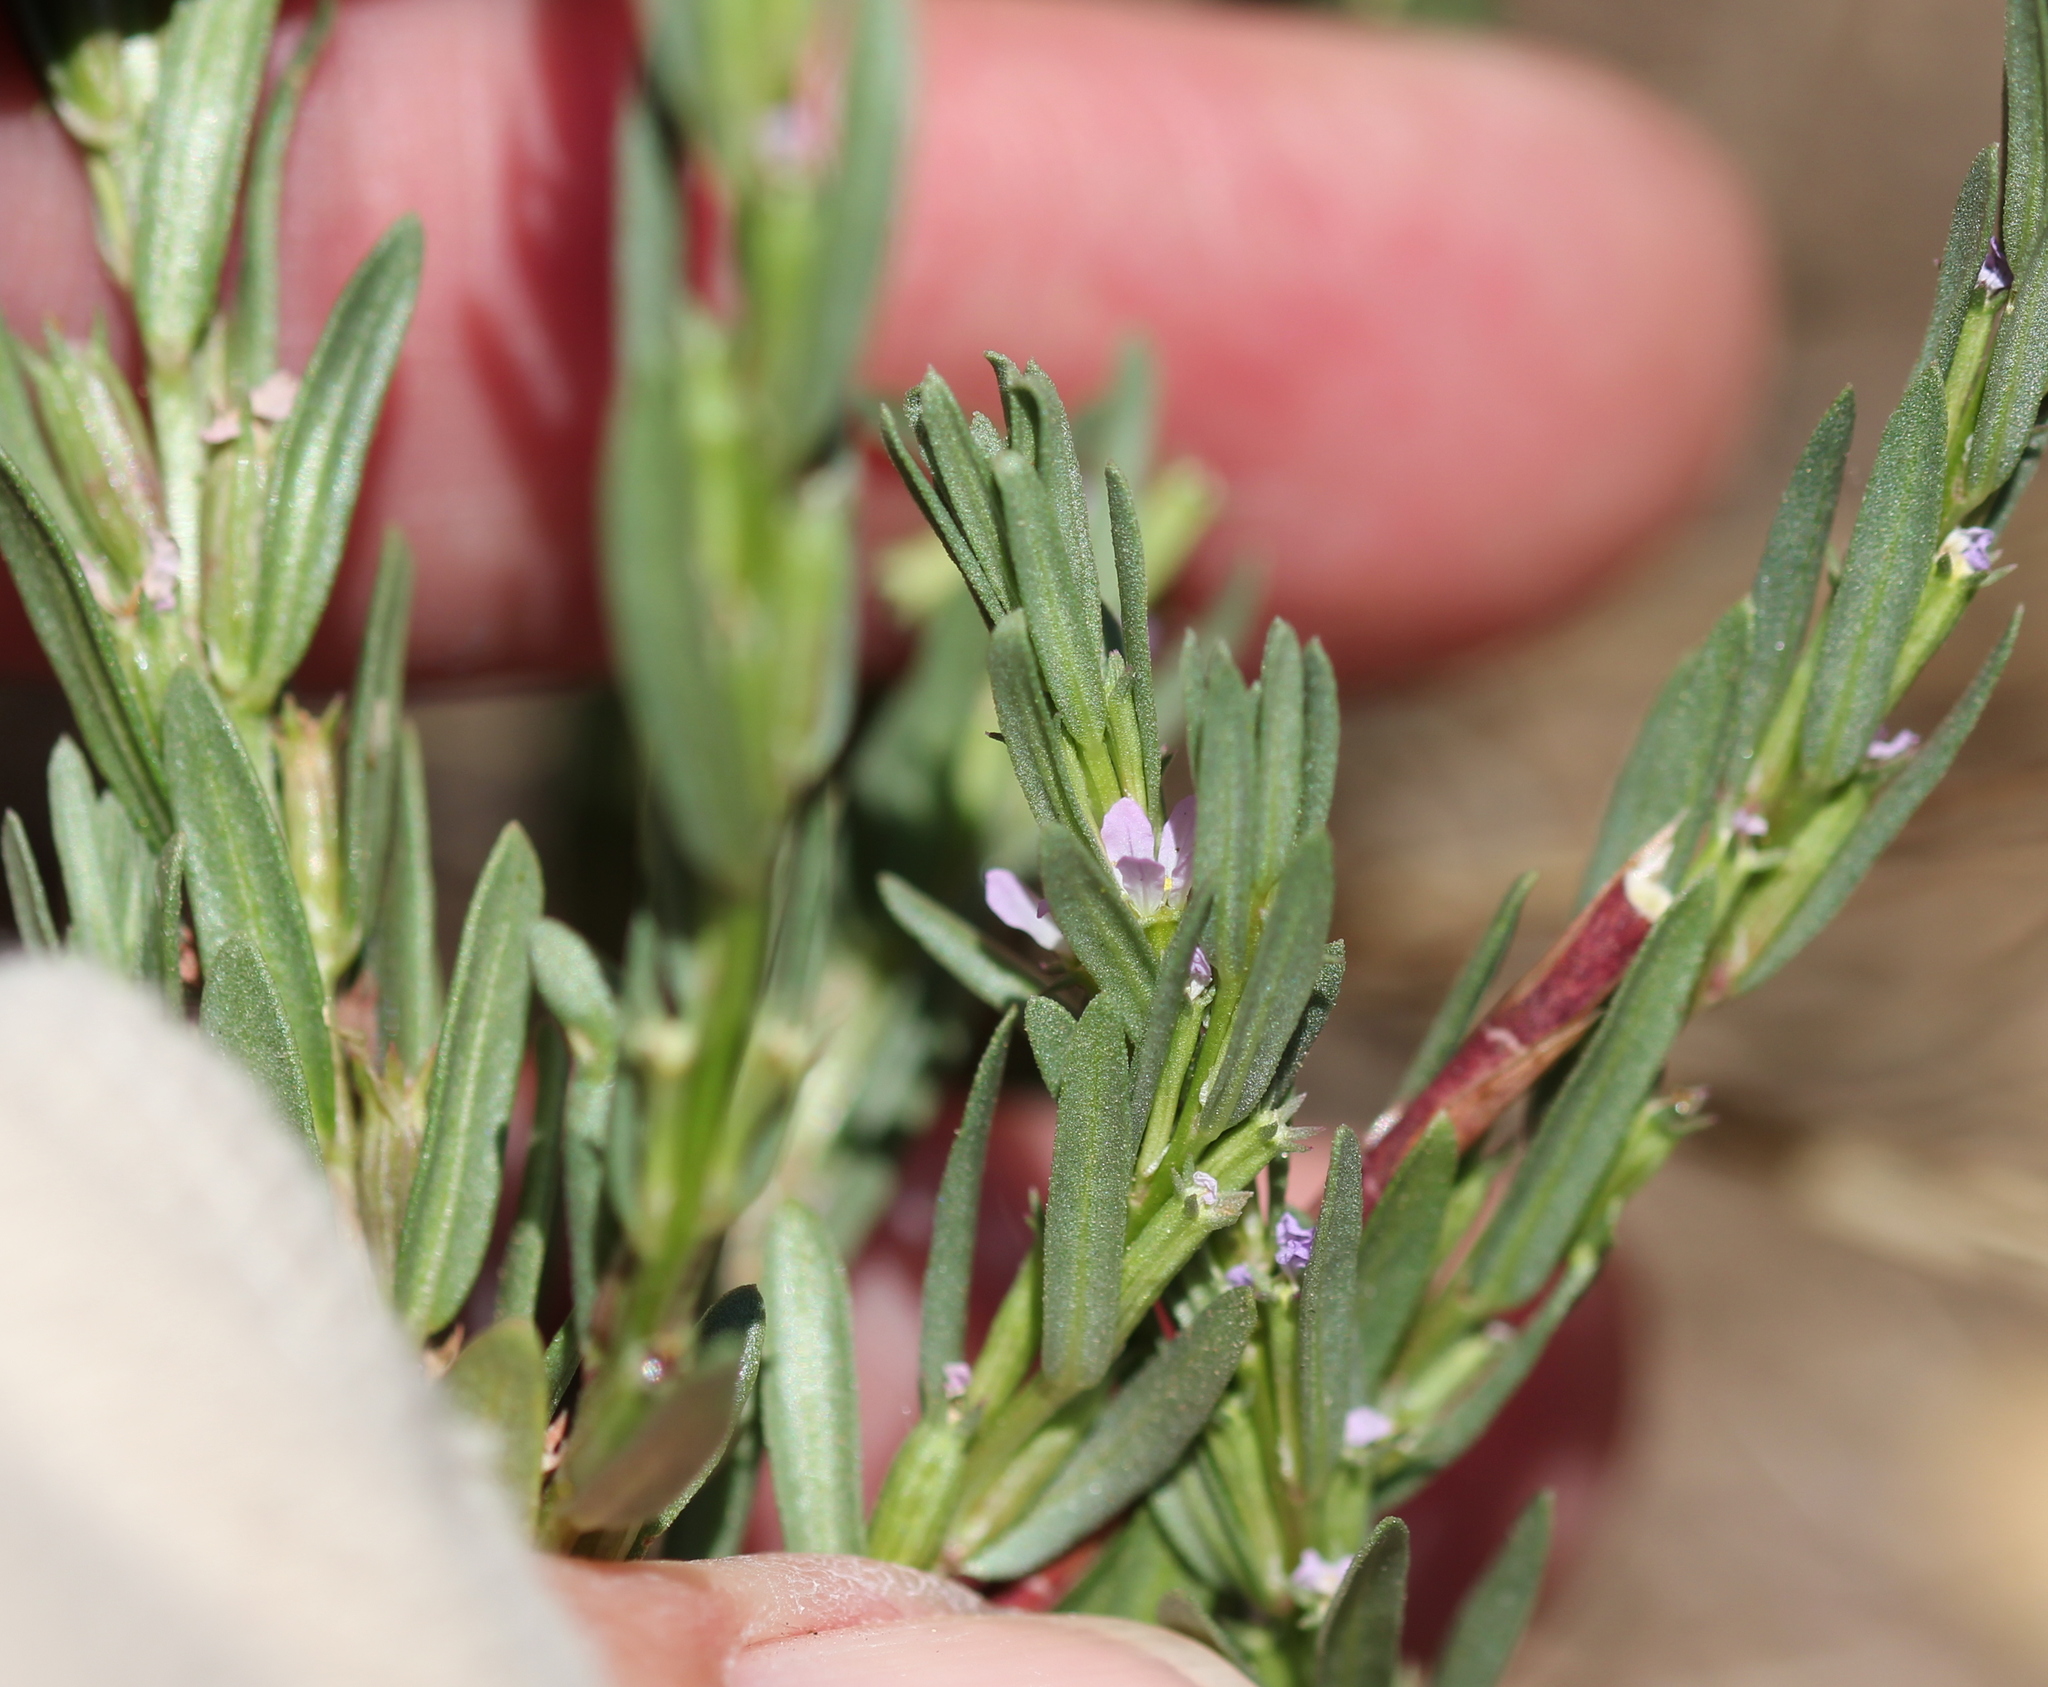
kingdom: Plantae
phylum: Tracheophyta
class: Magnoliopsida
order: Myrtales
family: Lythraceae
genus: Lythrum
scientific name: Lythrum hyssopifolia
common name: Grass-poly
